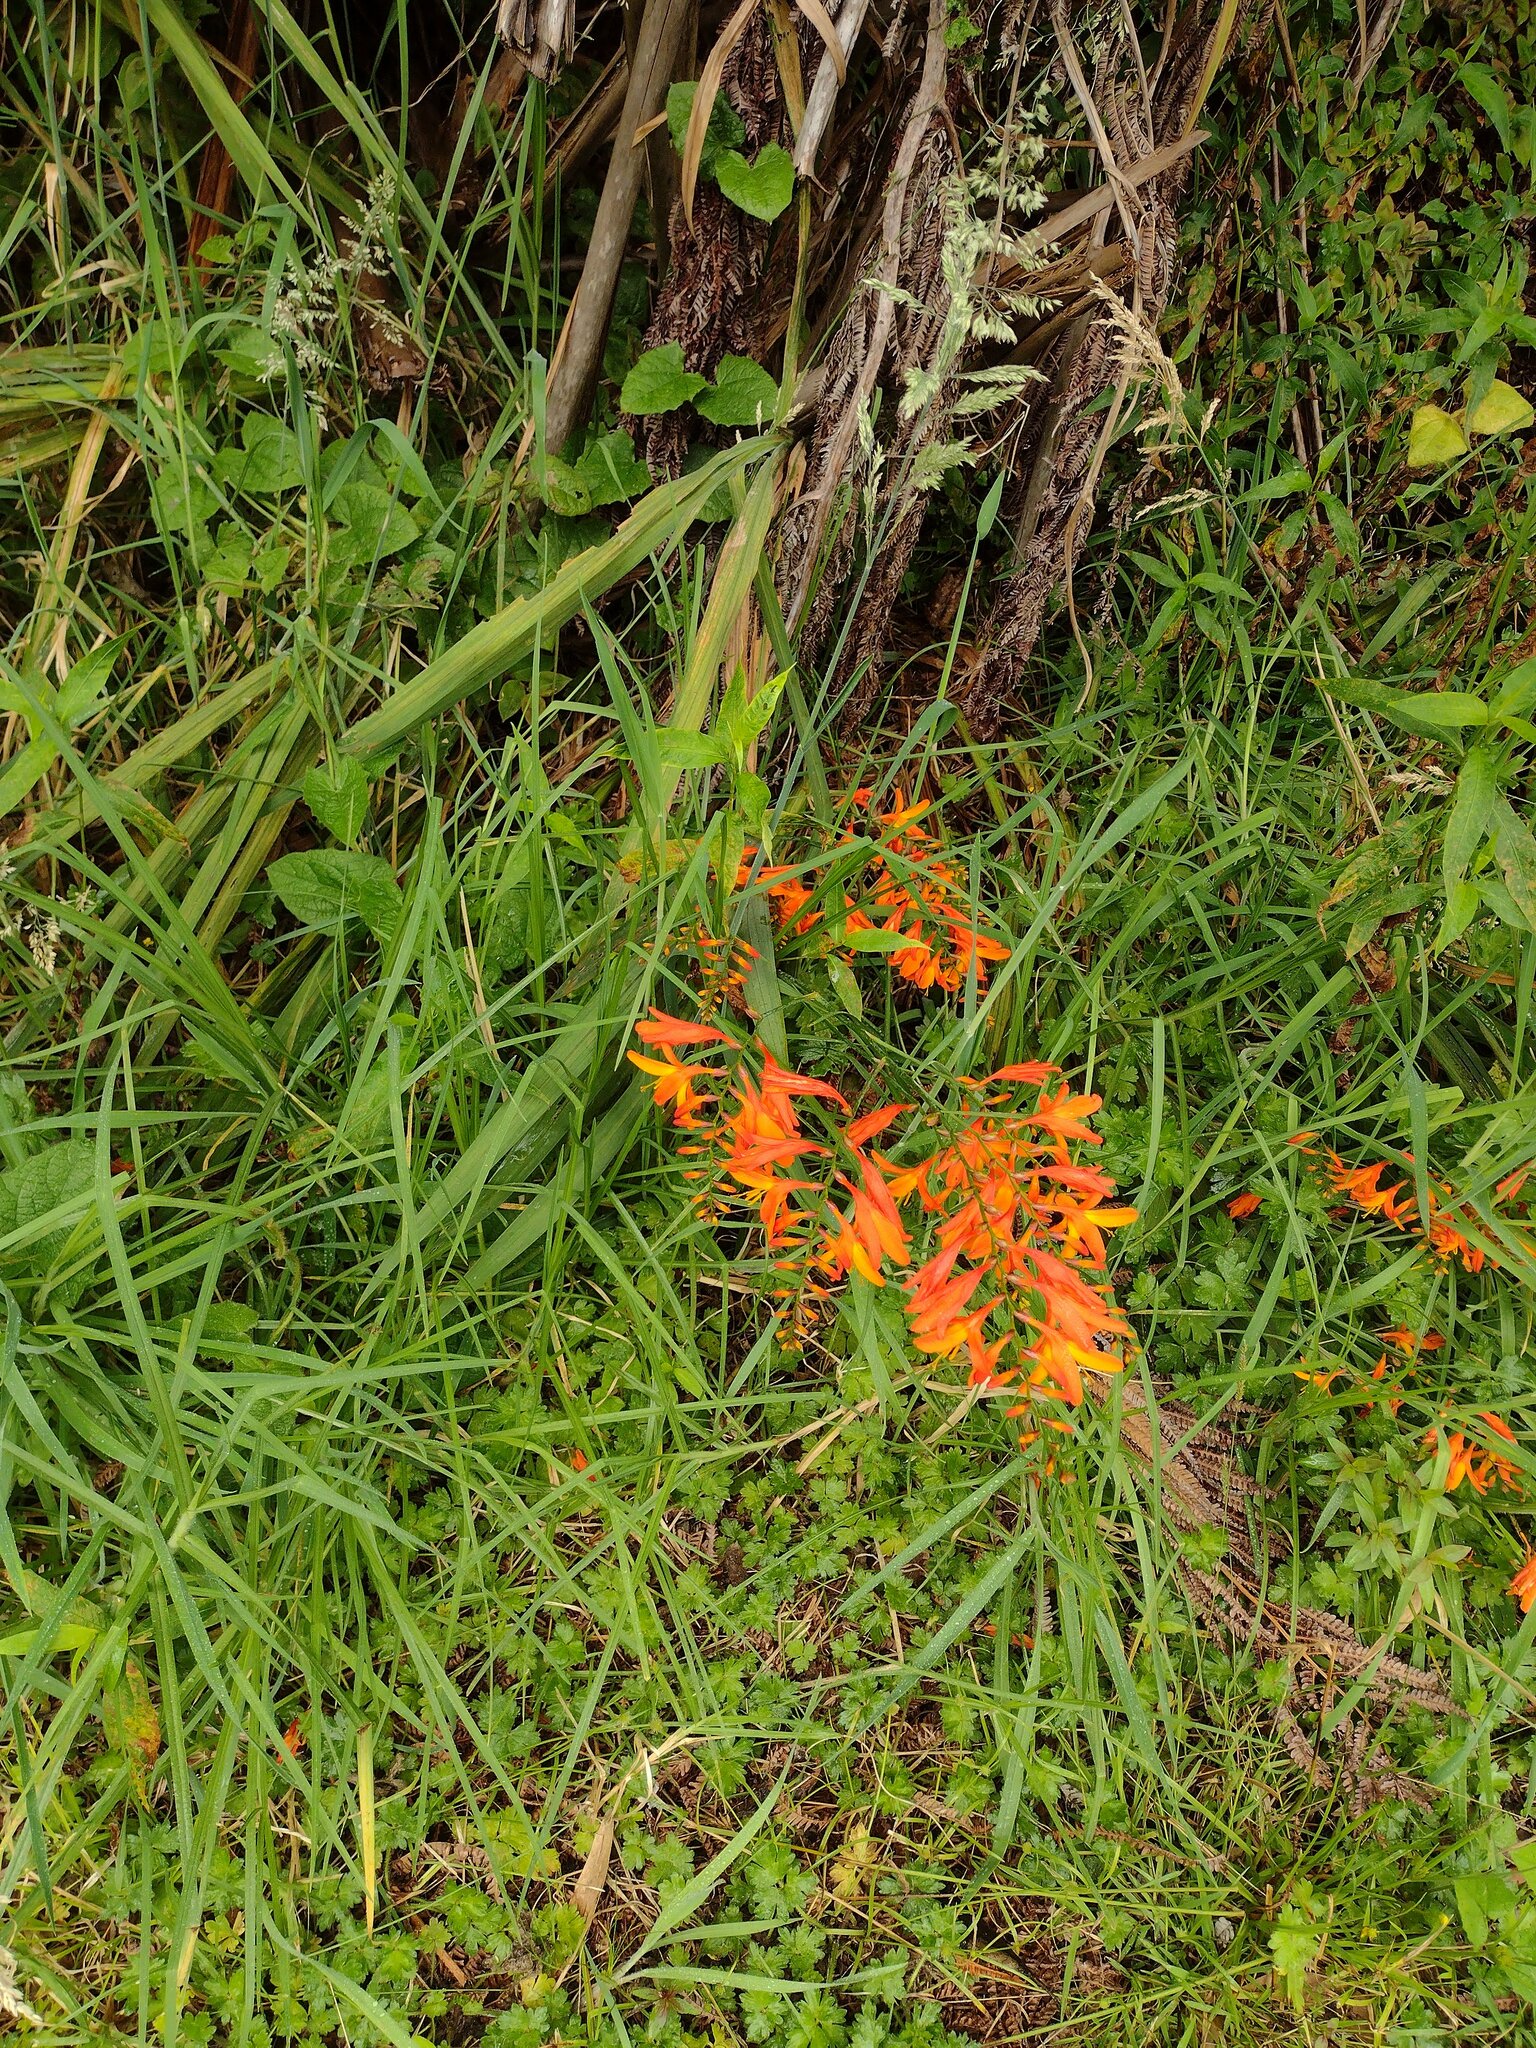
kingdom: Plantae
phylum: Tracheophyta
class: Liliopsida
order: Asparagales
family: Iridaceae
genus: Crocosmia
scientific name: Crocosmia crocosmiiflora
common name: Montbretia
